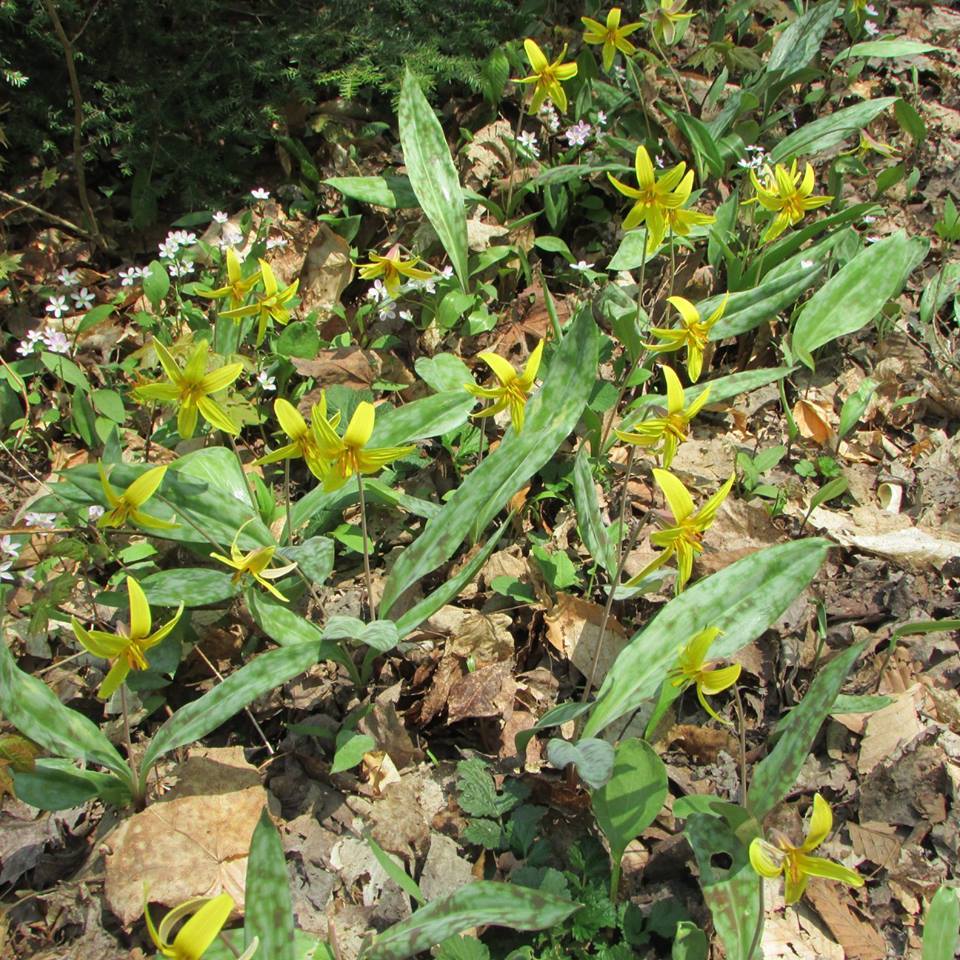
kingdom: Plantae
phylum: Tracheophyta
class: Liliopsida
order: Liliales
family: Liliaceae
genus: Erythronium
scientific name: Erythronium americanum
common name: Yellow adder's-tongue
